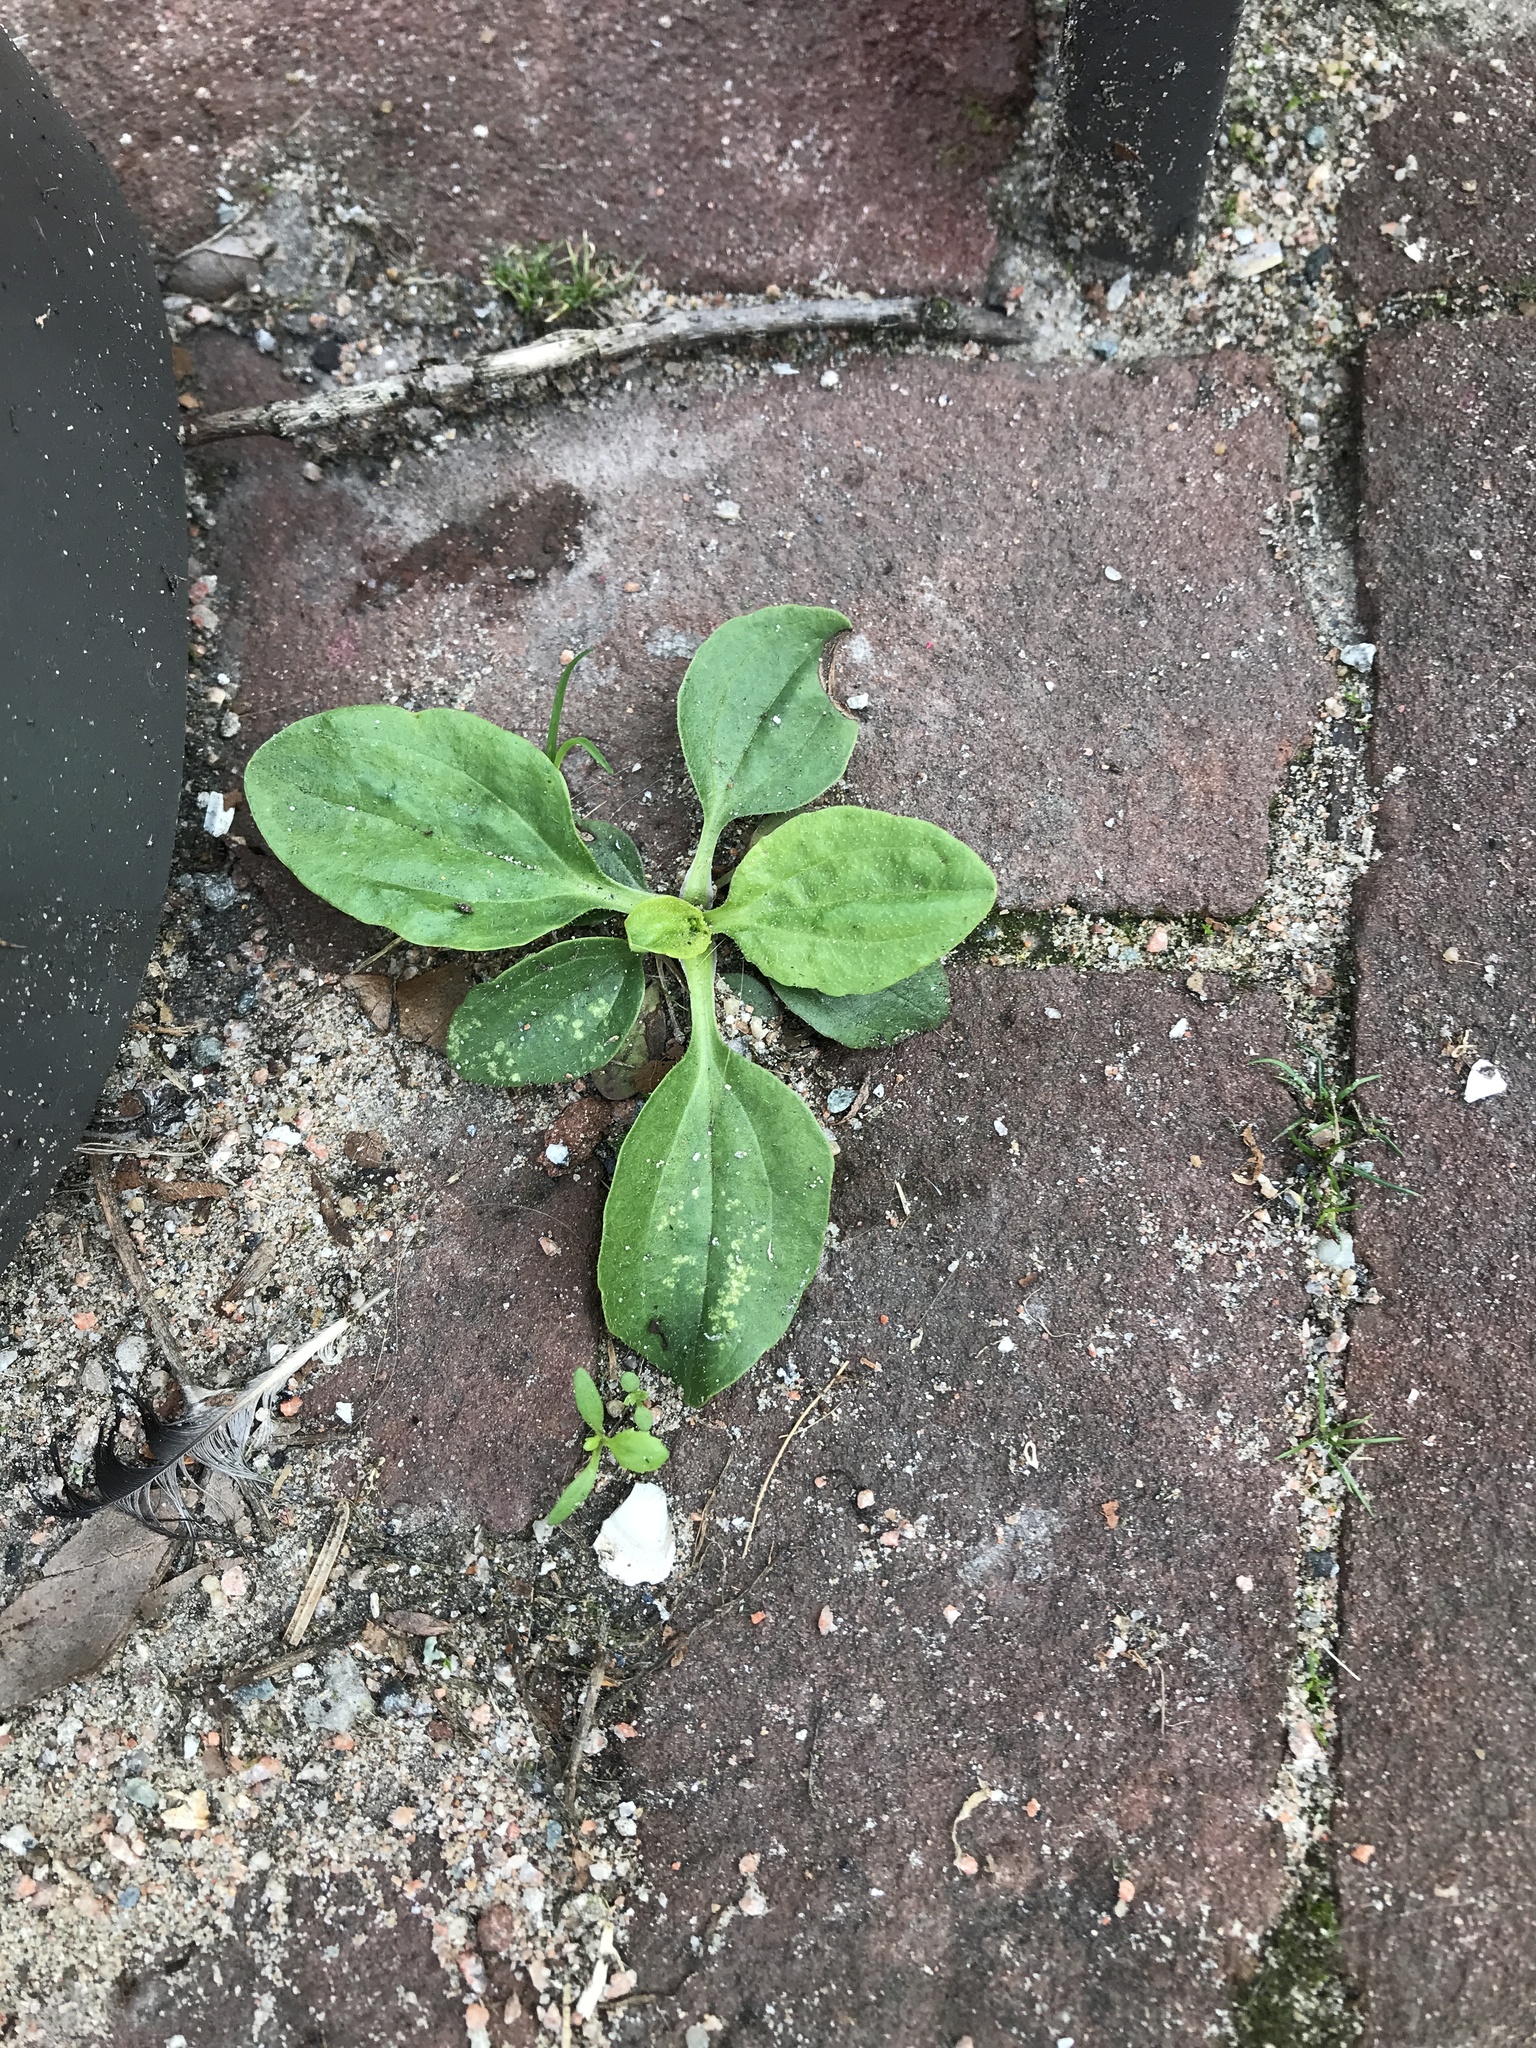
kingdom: Plantae
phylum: Tracheophyta
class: Magnoliopsida
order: Lamiales
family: Plantaginaceae
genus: Plantago
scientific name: Plantago
